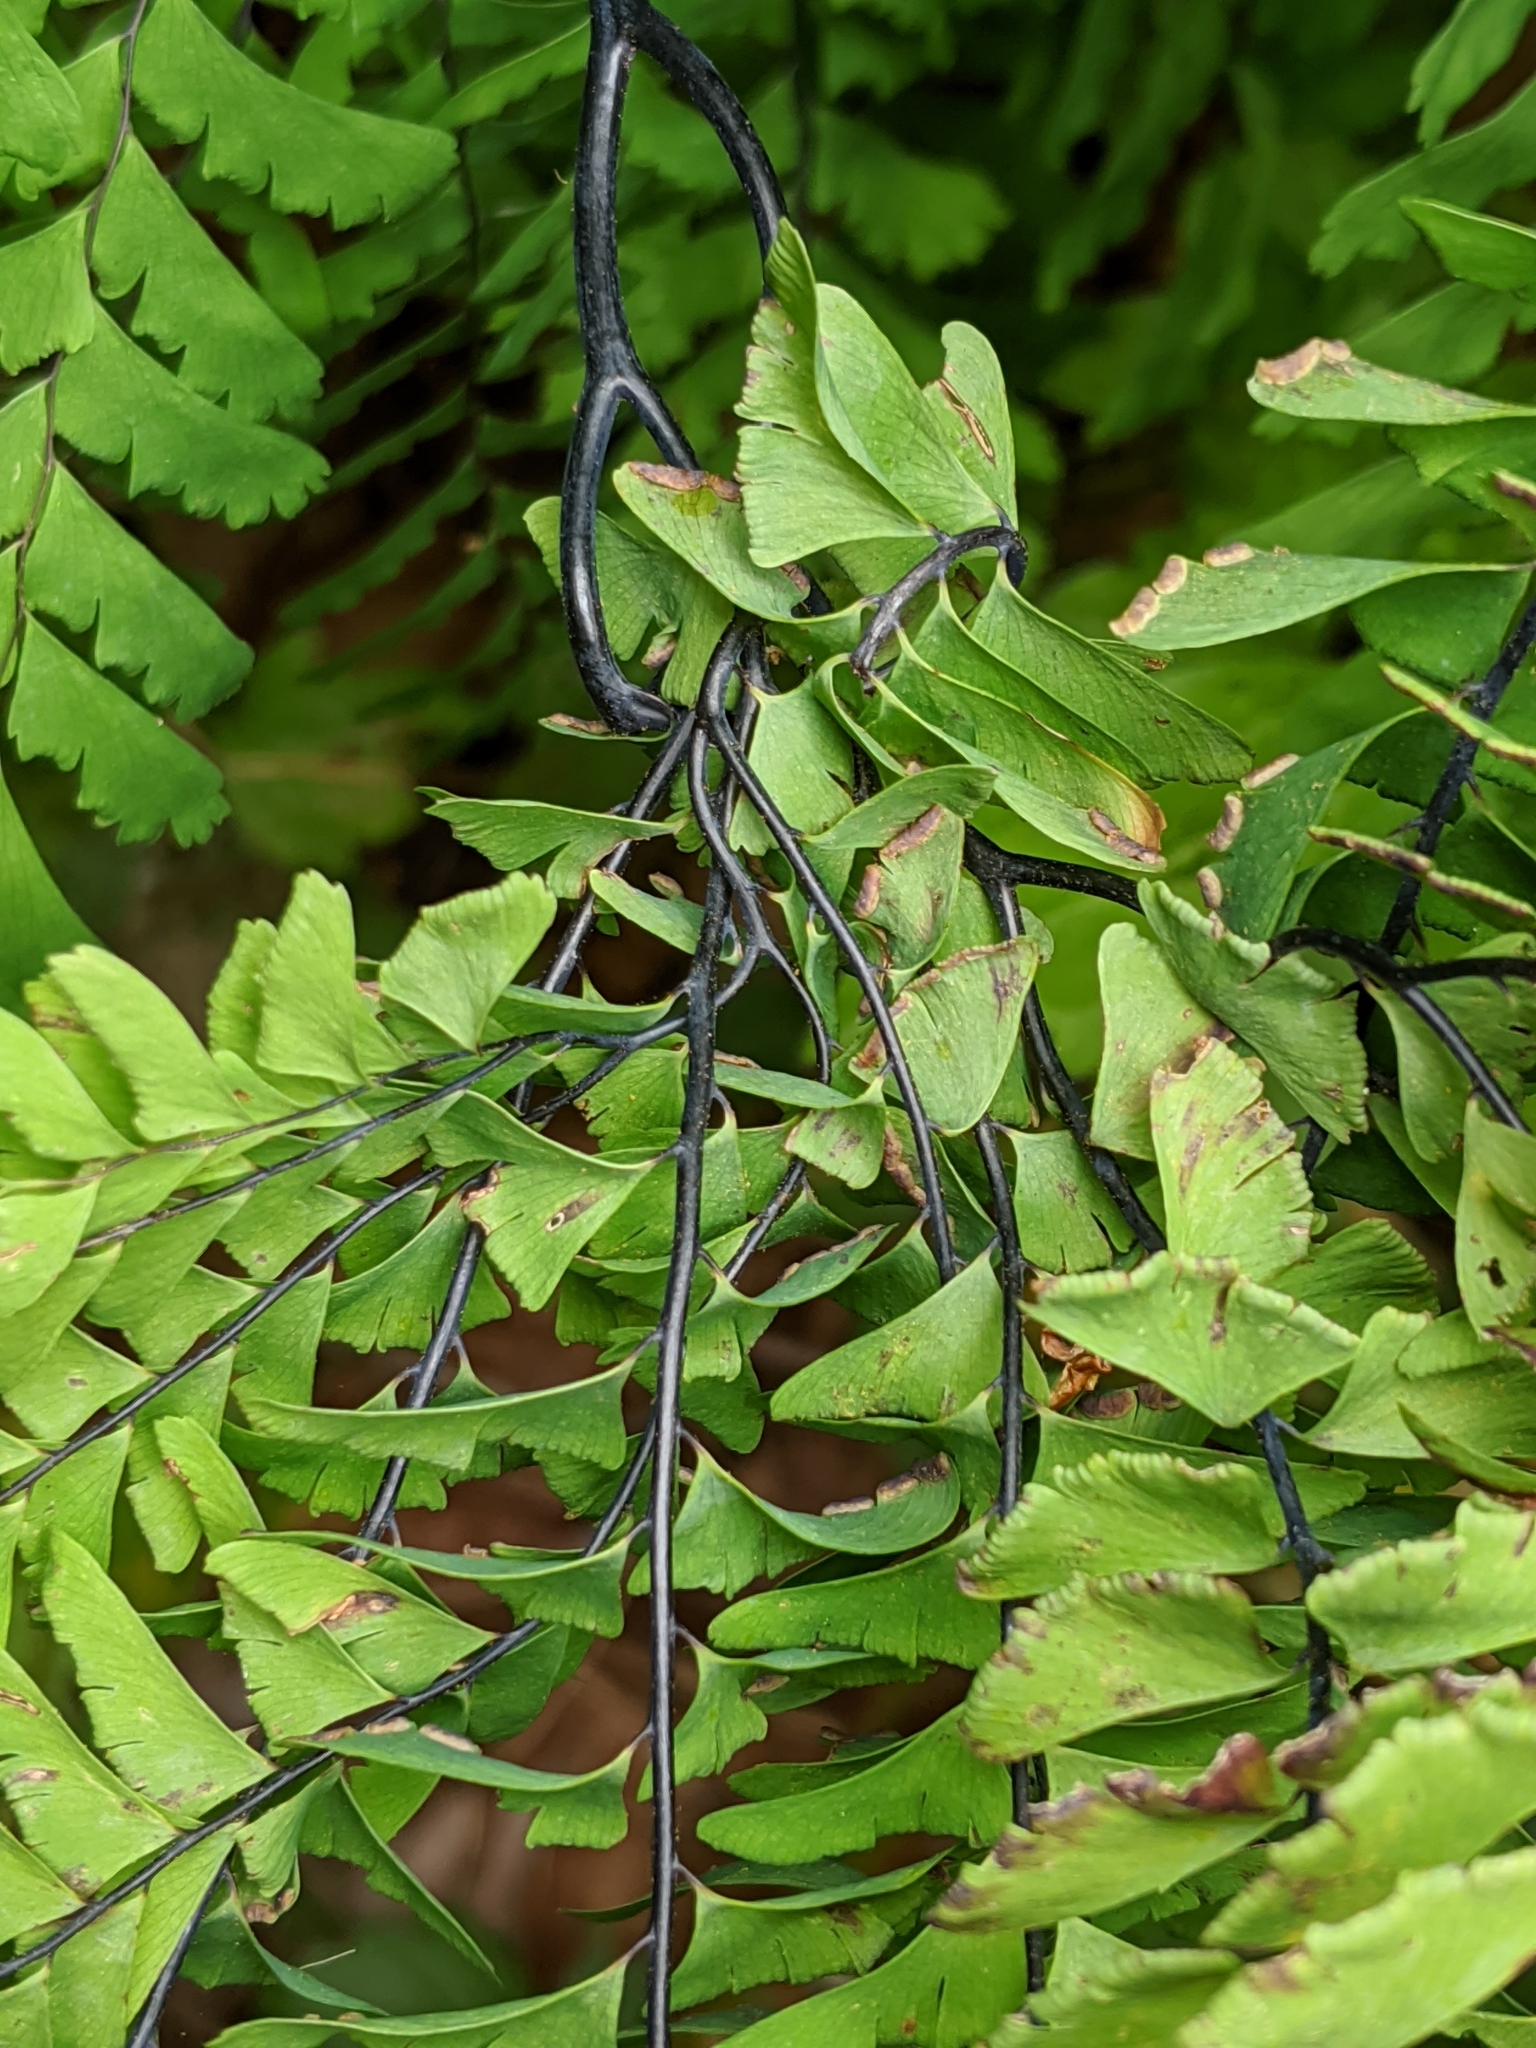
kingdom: Plantae
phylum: Tracheophyta
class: Polypodiopsida
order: Polypodiales
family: Pteridaceae
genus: Adiantum
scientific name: Adiantum aleuticum
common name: Aleutian maidenhair fern
